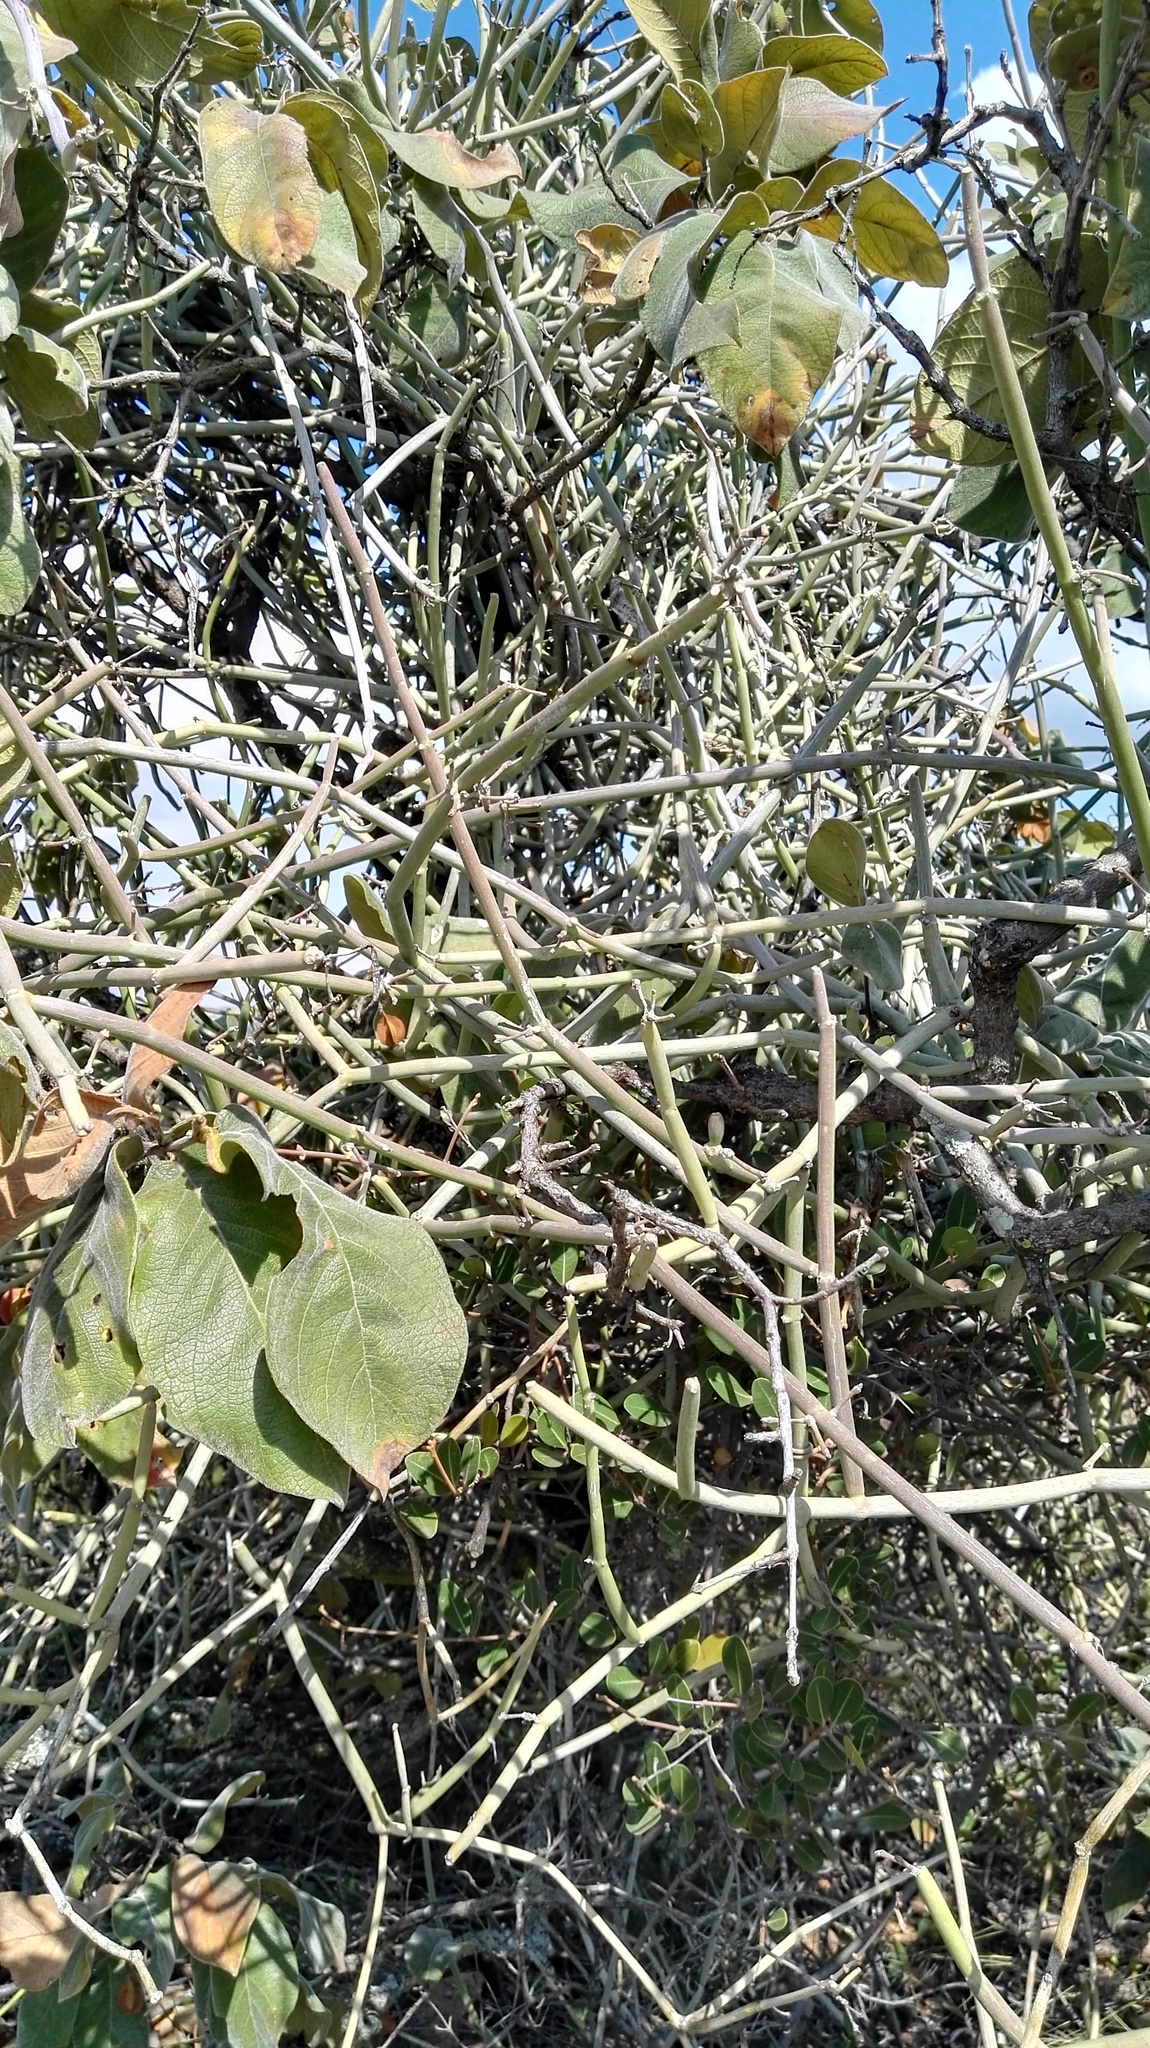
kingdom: Plantae
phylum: Tracheophyta
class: Magnoliopsida
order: Gentianales
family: Apocynaceae
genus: Cynanchum
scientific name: Cynanchum viminale
